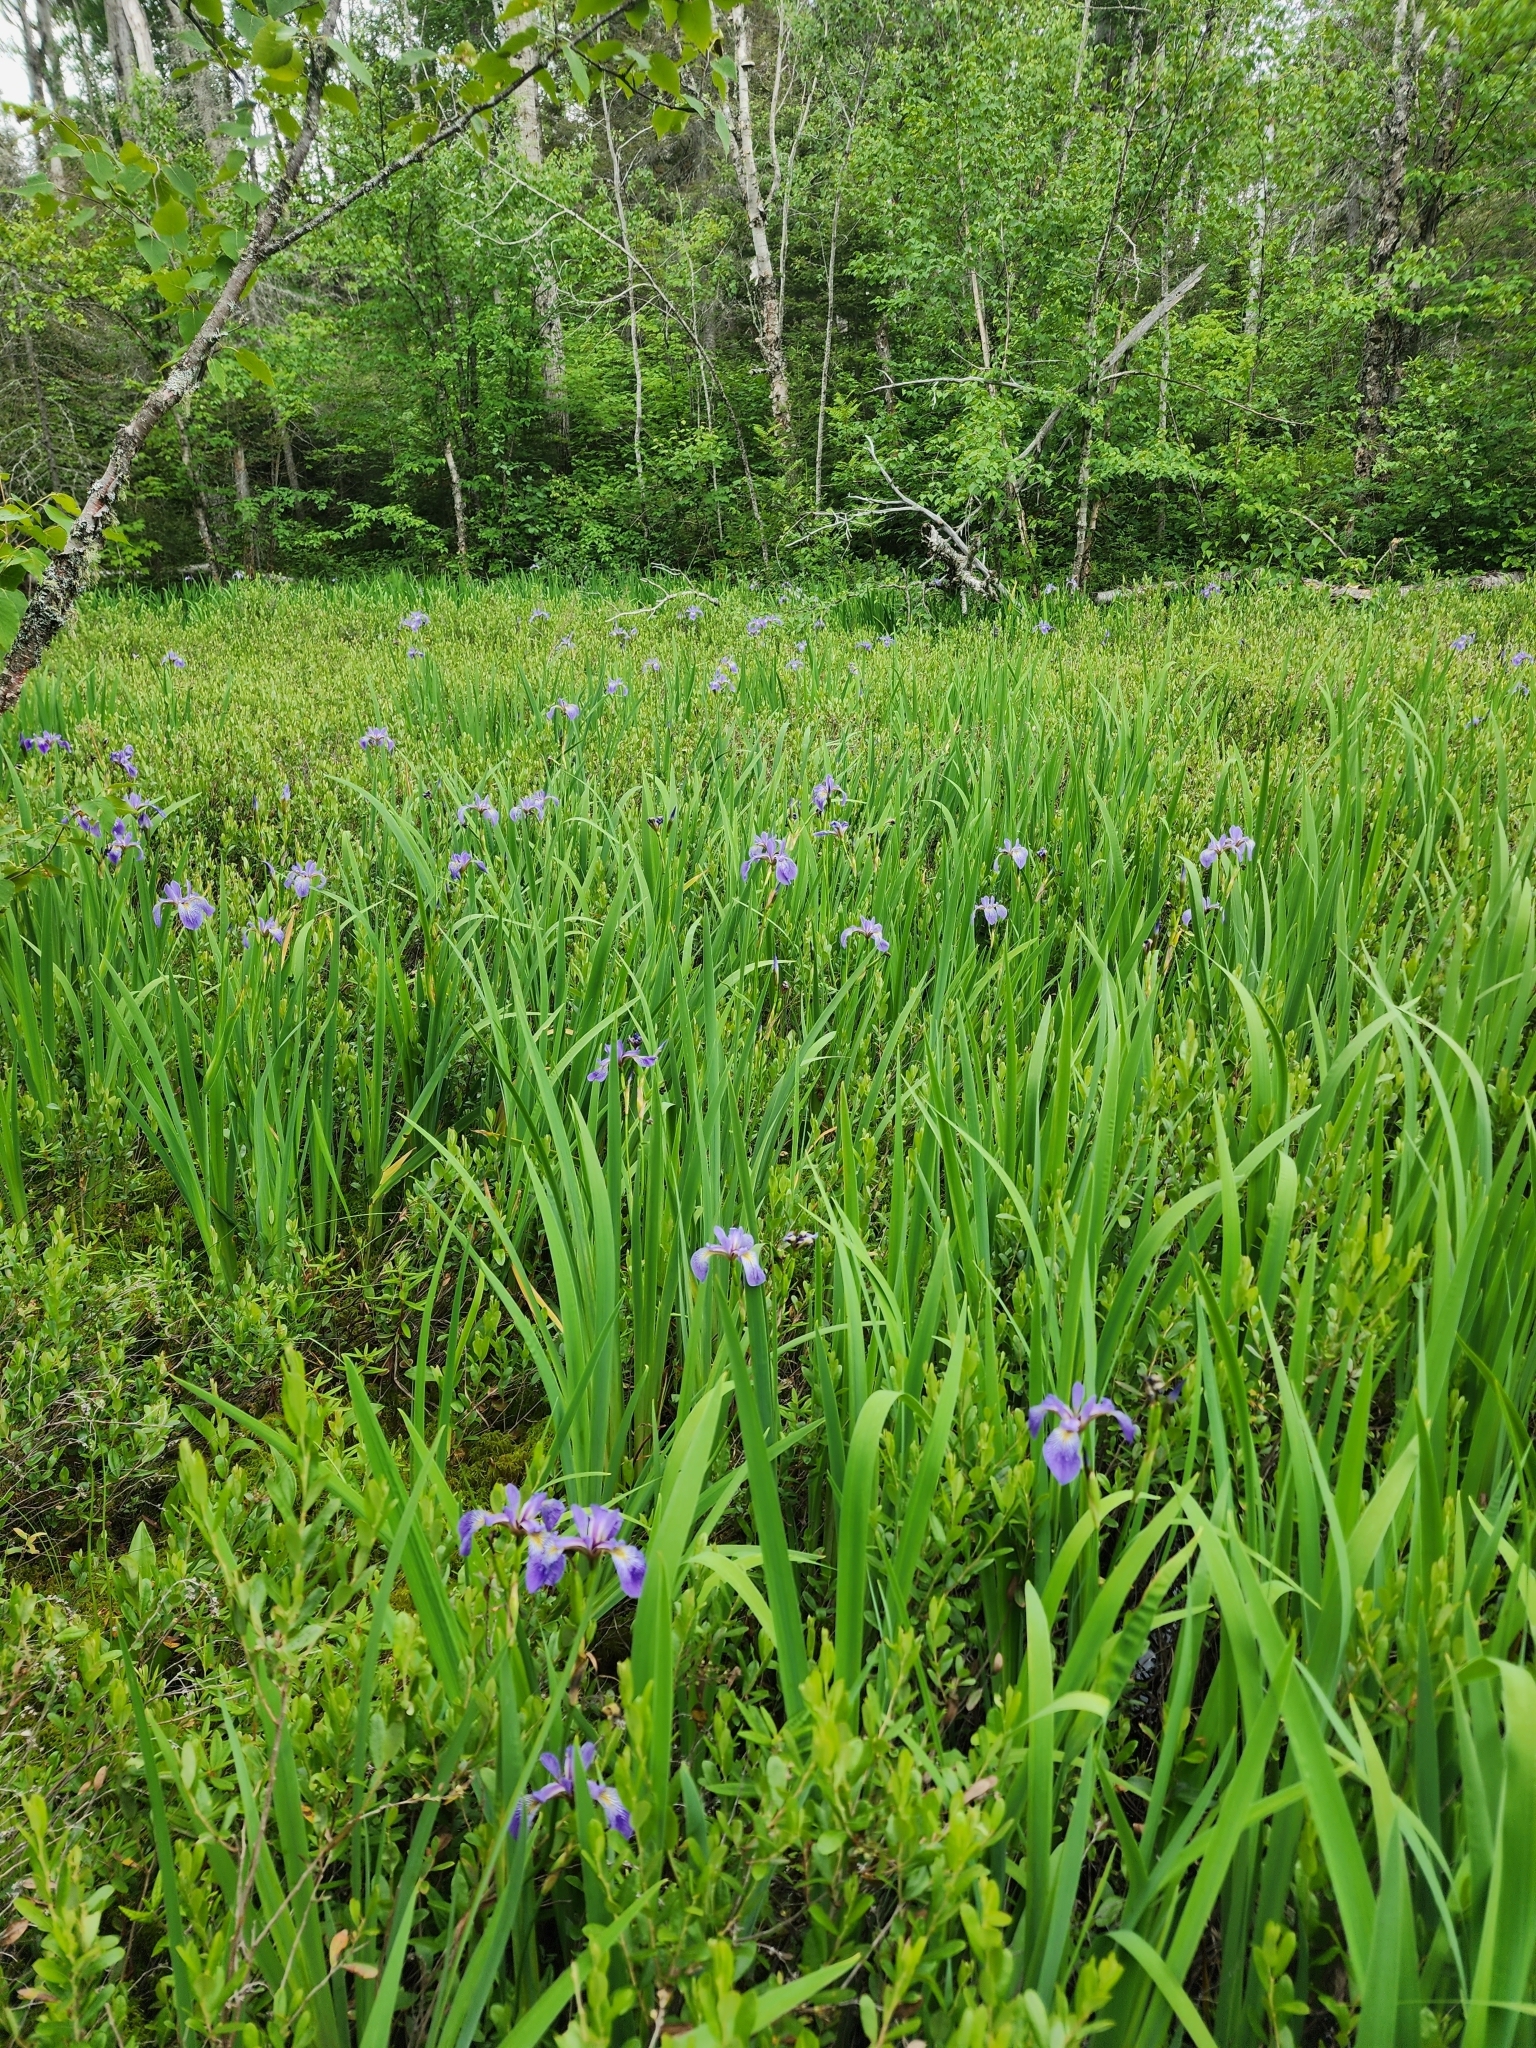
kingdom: Plantae
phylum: Tracheophyta
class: Liliopsida
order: Asparagales
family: Iridaceae
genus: Iris
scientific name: Iris versicolor
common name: Purple iris
